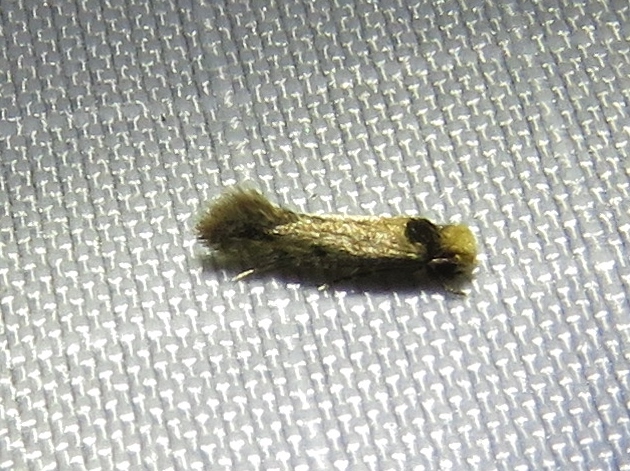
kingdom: Animalia
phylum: Arthropoda
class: Insecta
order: Lepidoptera
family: Tineidae
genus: Tinea
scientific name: Tinea apicimaculella
